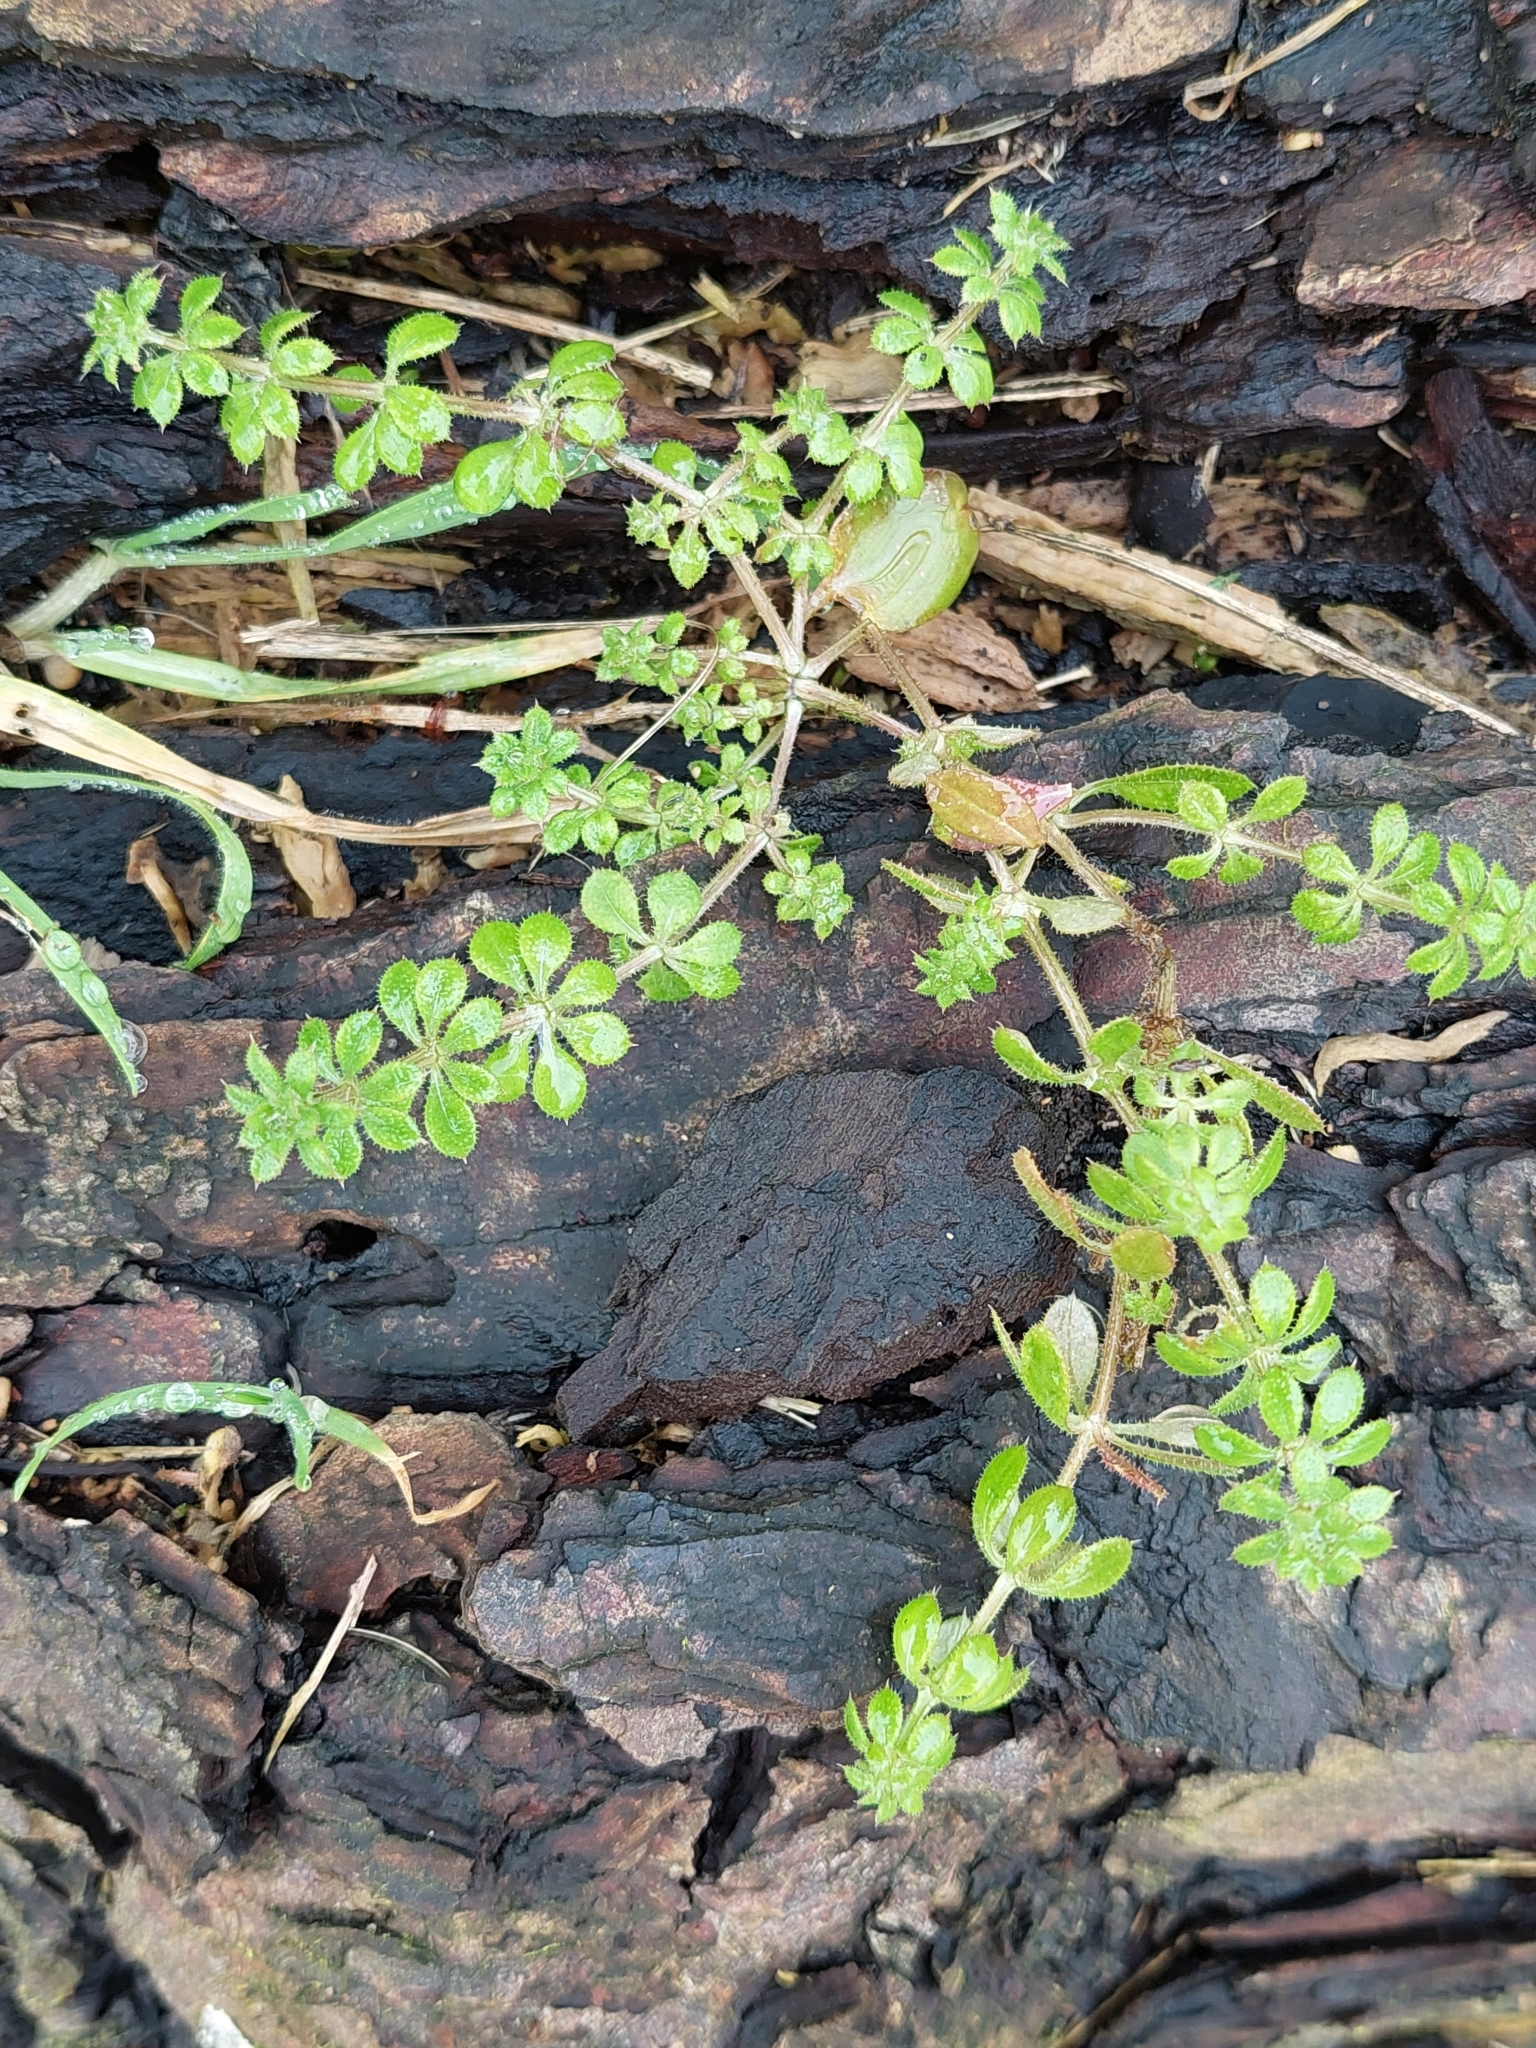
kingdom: Plantae
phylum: Tracheophyta
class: Magnoliopsida
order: Gentianales
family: Rubiaceae
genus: Galium
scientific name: Galium aparine
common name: Cleavers
